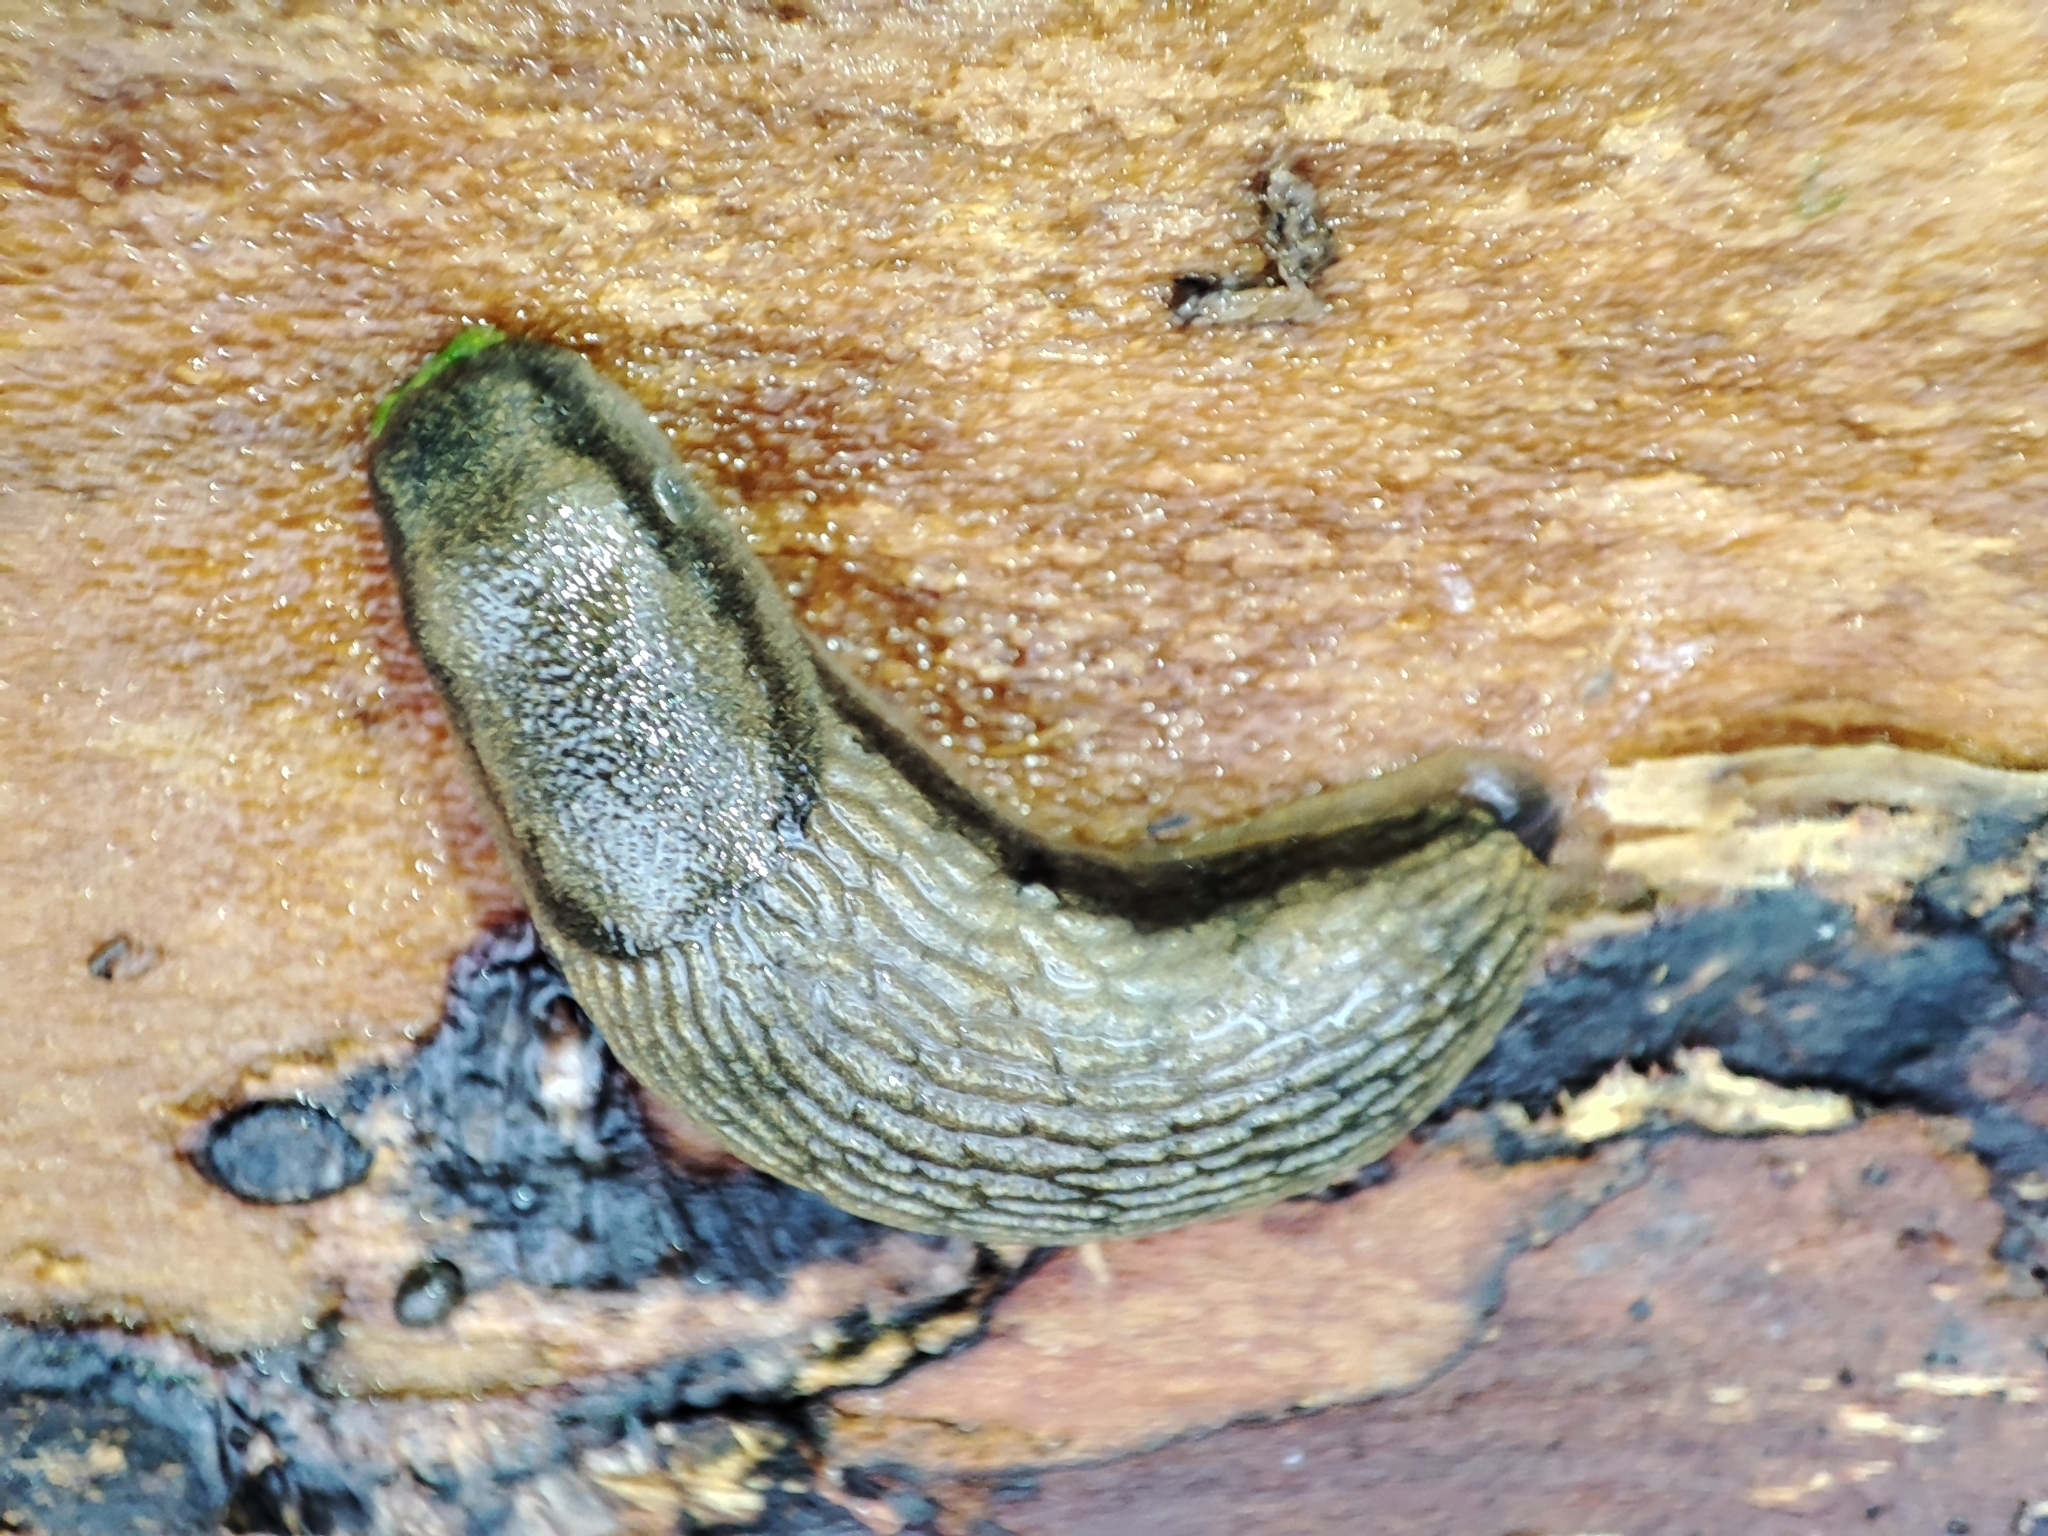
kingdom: Animalia
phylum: Mollusca
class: Gastropoda
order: Stylommatophora
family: Arionidae
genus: Arion
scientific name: Arion vulgaris
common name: Lusitanian slug
